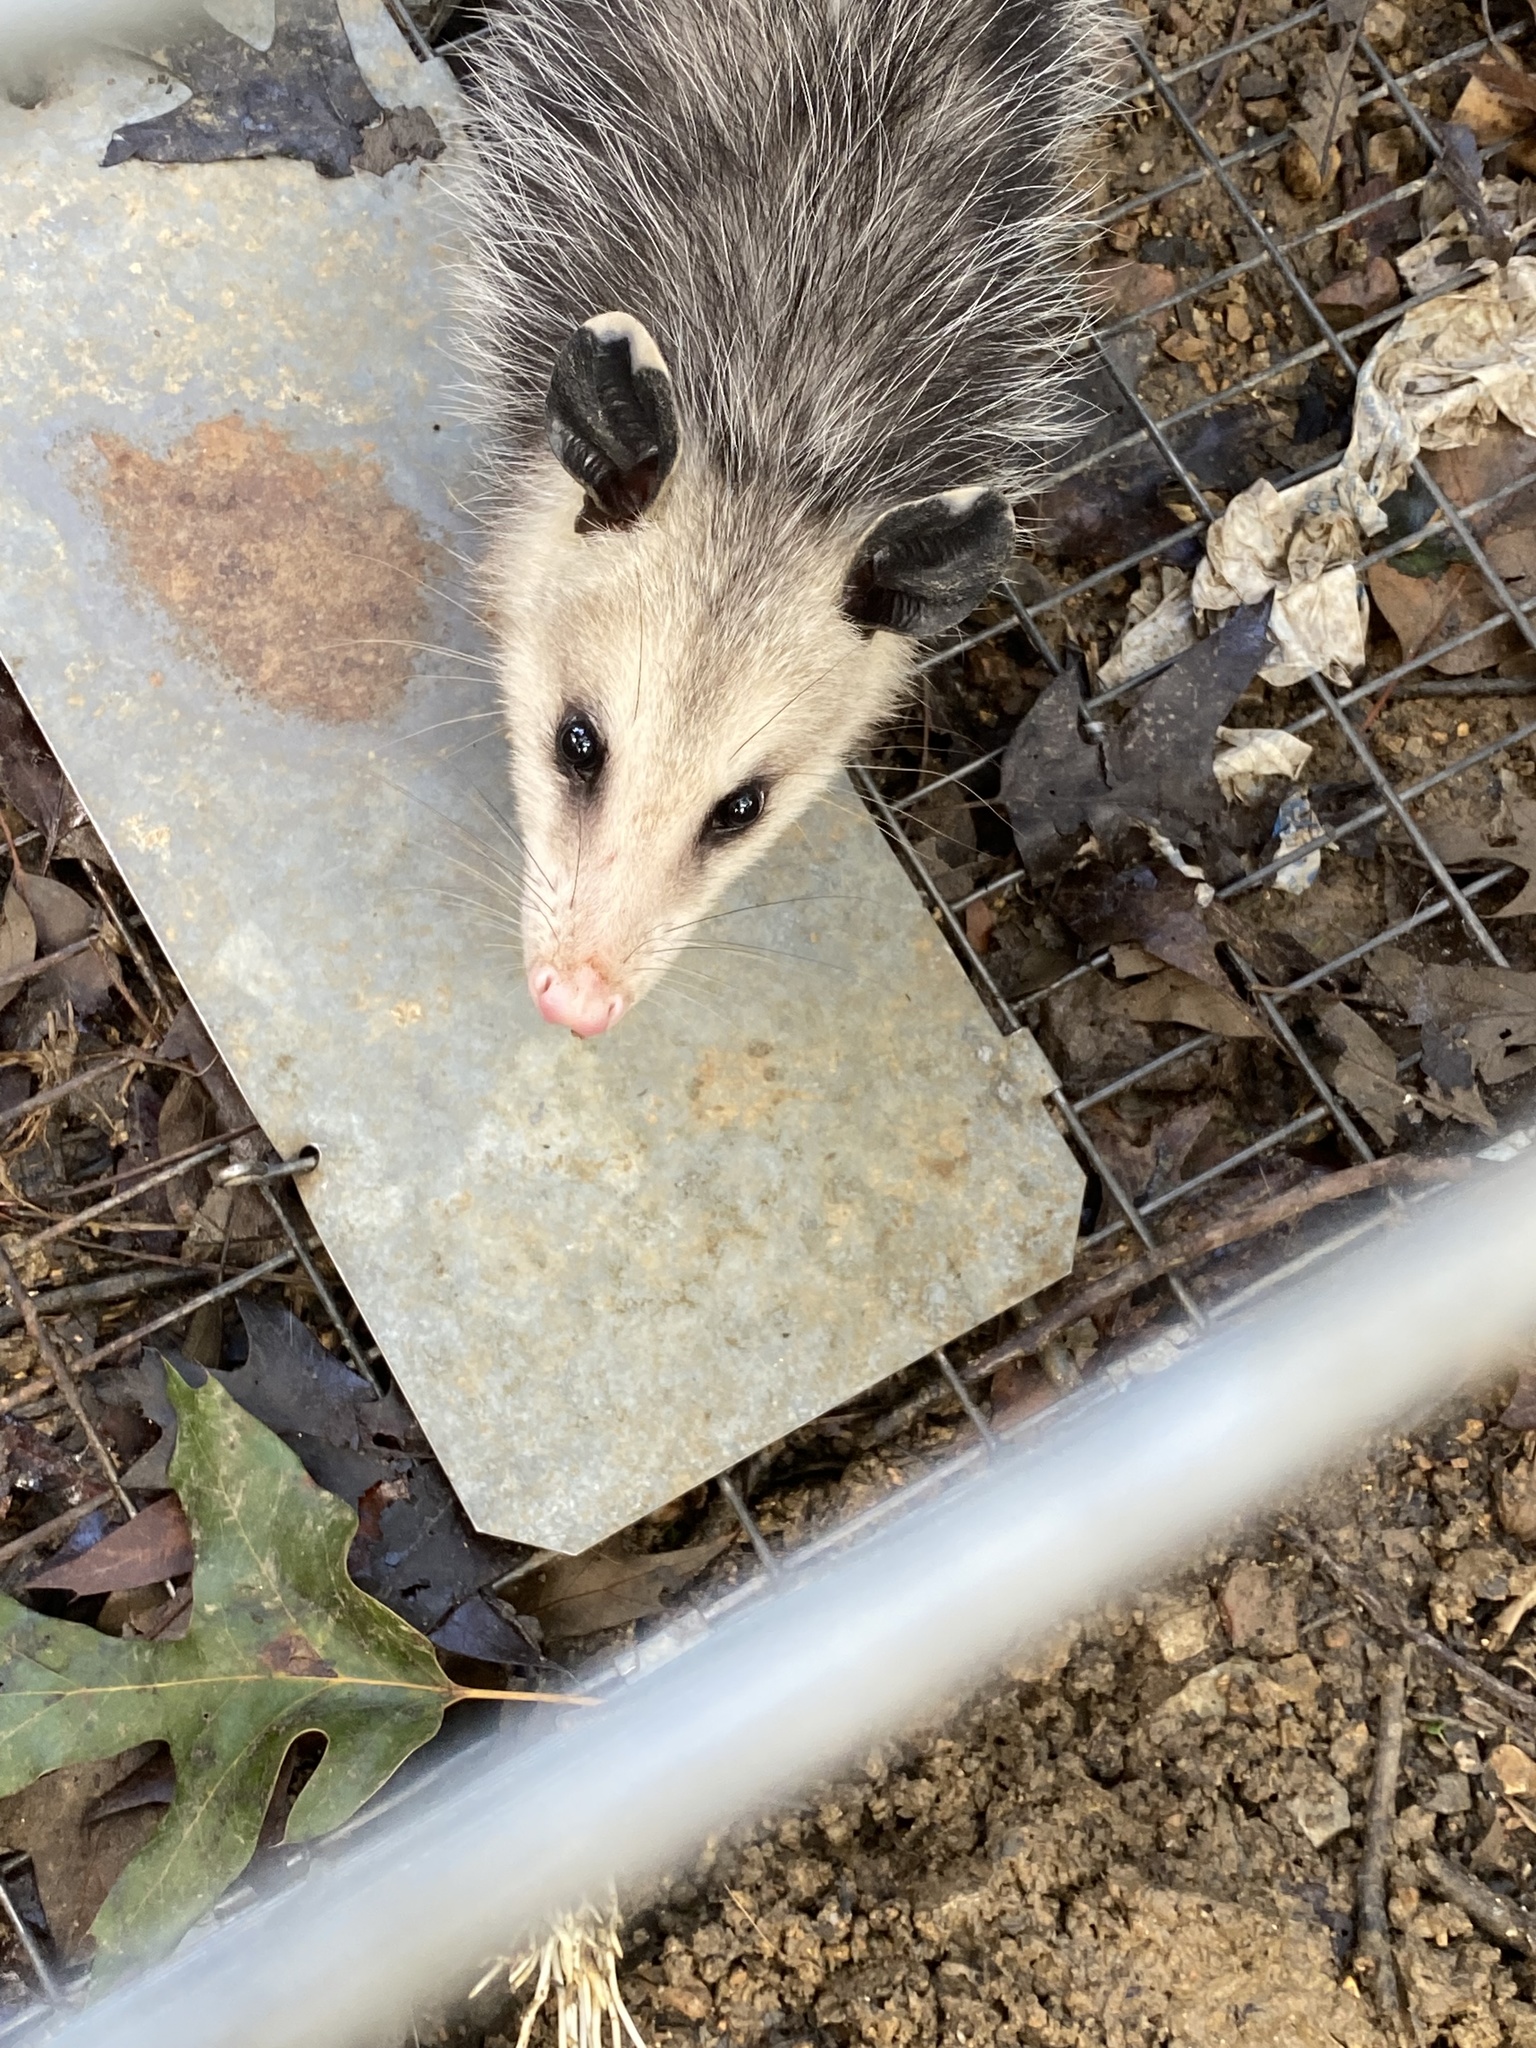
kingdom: Animalia
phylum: Chordata
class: Mammalia
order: Didelphimorphia
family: Didelphidae
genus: Didelphis
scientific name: Didelphis virginiana
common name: Virginia opossum
